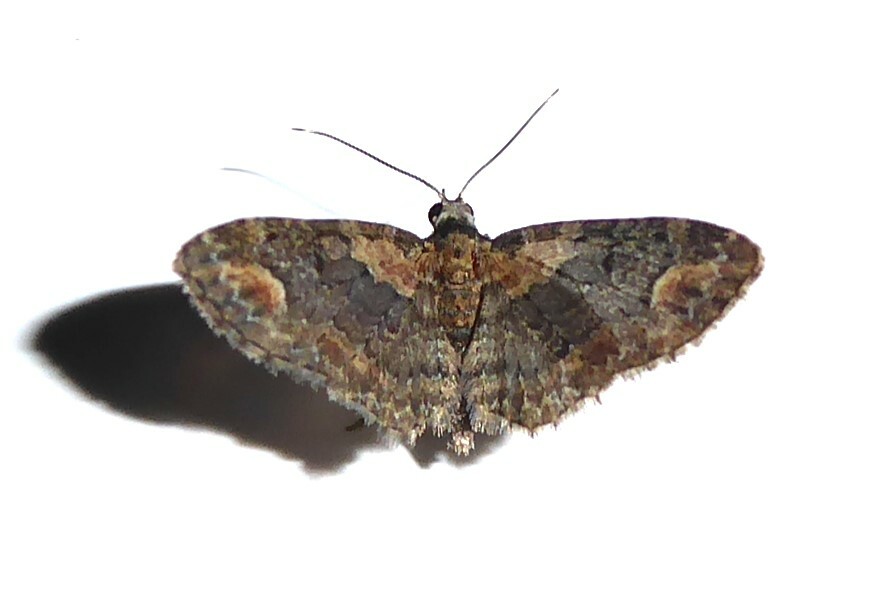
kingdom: Animalia
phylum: Arthropoda
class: Insecta
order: Lepidoptera
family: Geometridae
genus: Pasiphilodes
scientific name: Pasiphilodes testulata
